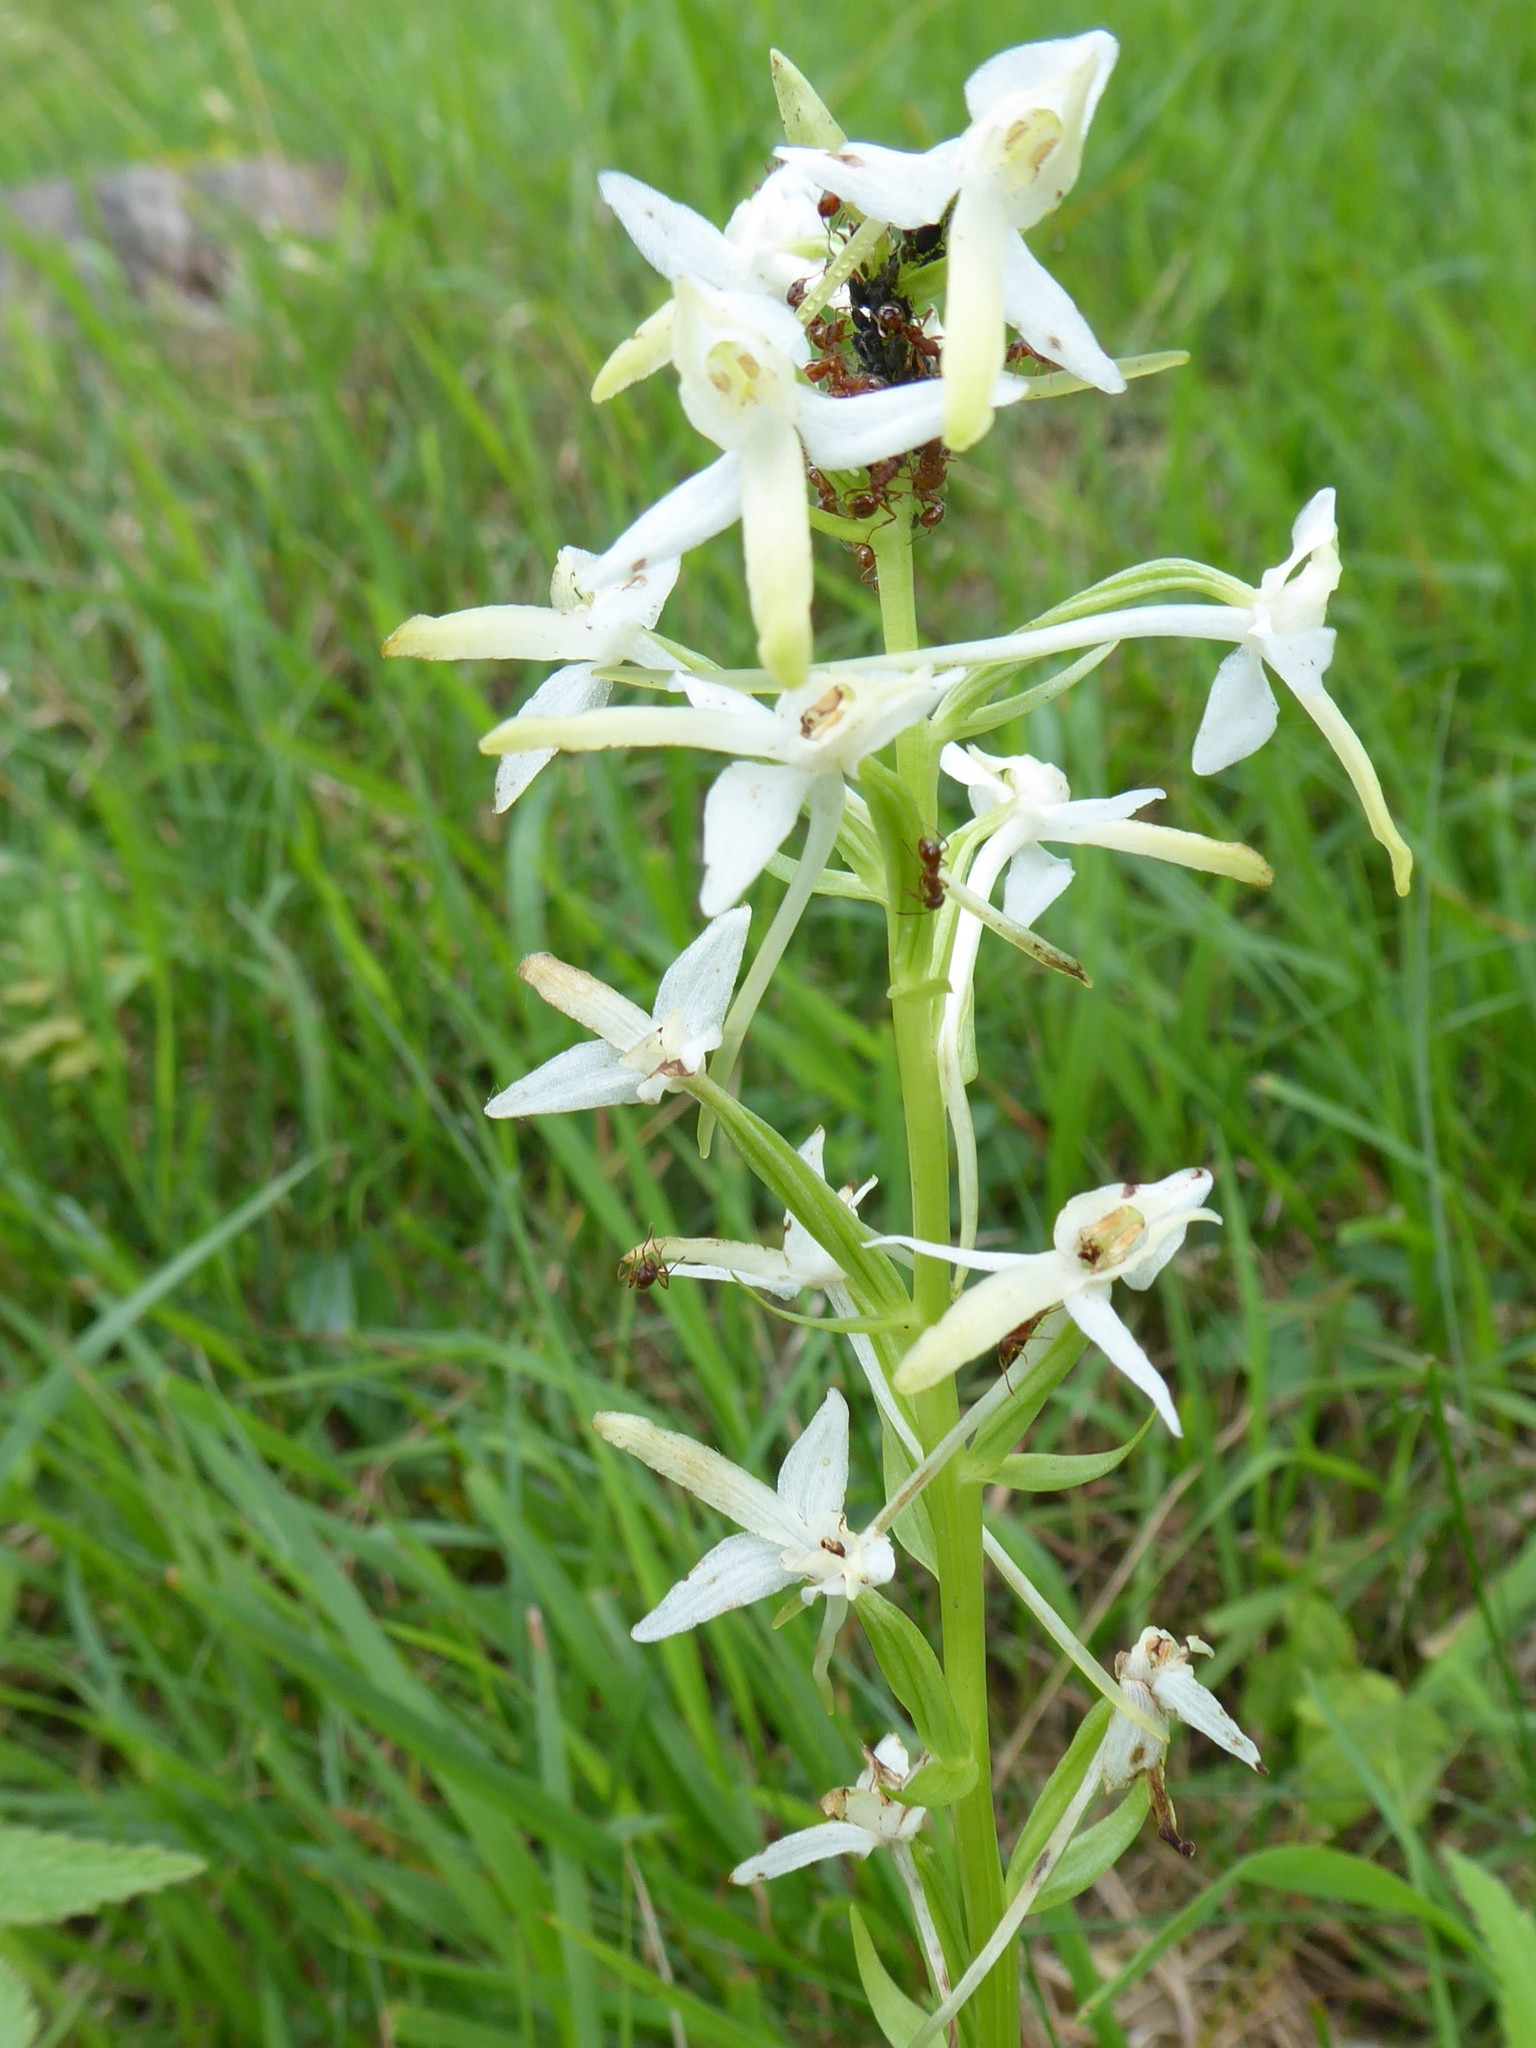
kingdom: Plantae
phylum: Tracheophyta
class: Liliopsida
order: Asparagales
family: Orchidaceae
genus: Platanthera
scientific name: Platanthera bifolia
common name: Lesser butterfly-orchid
